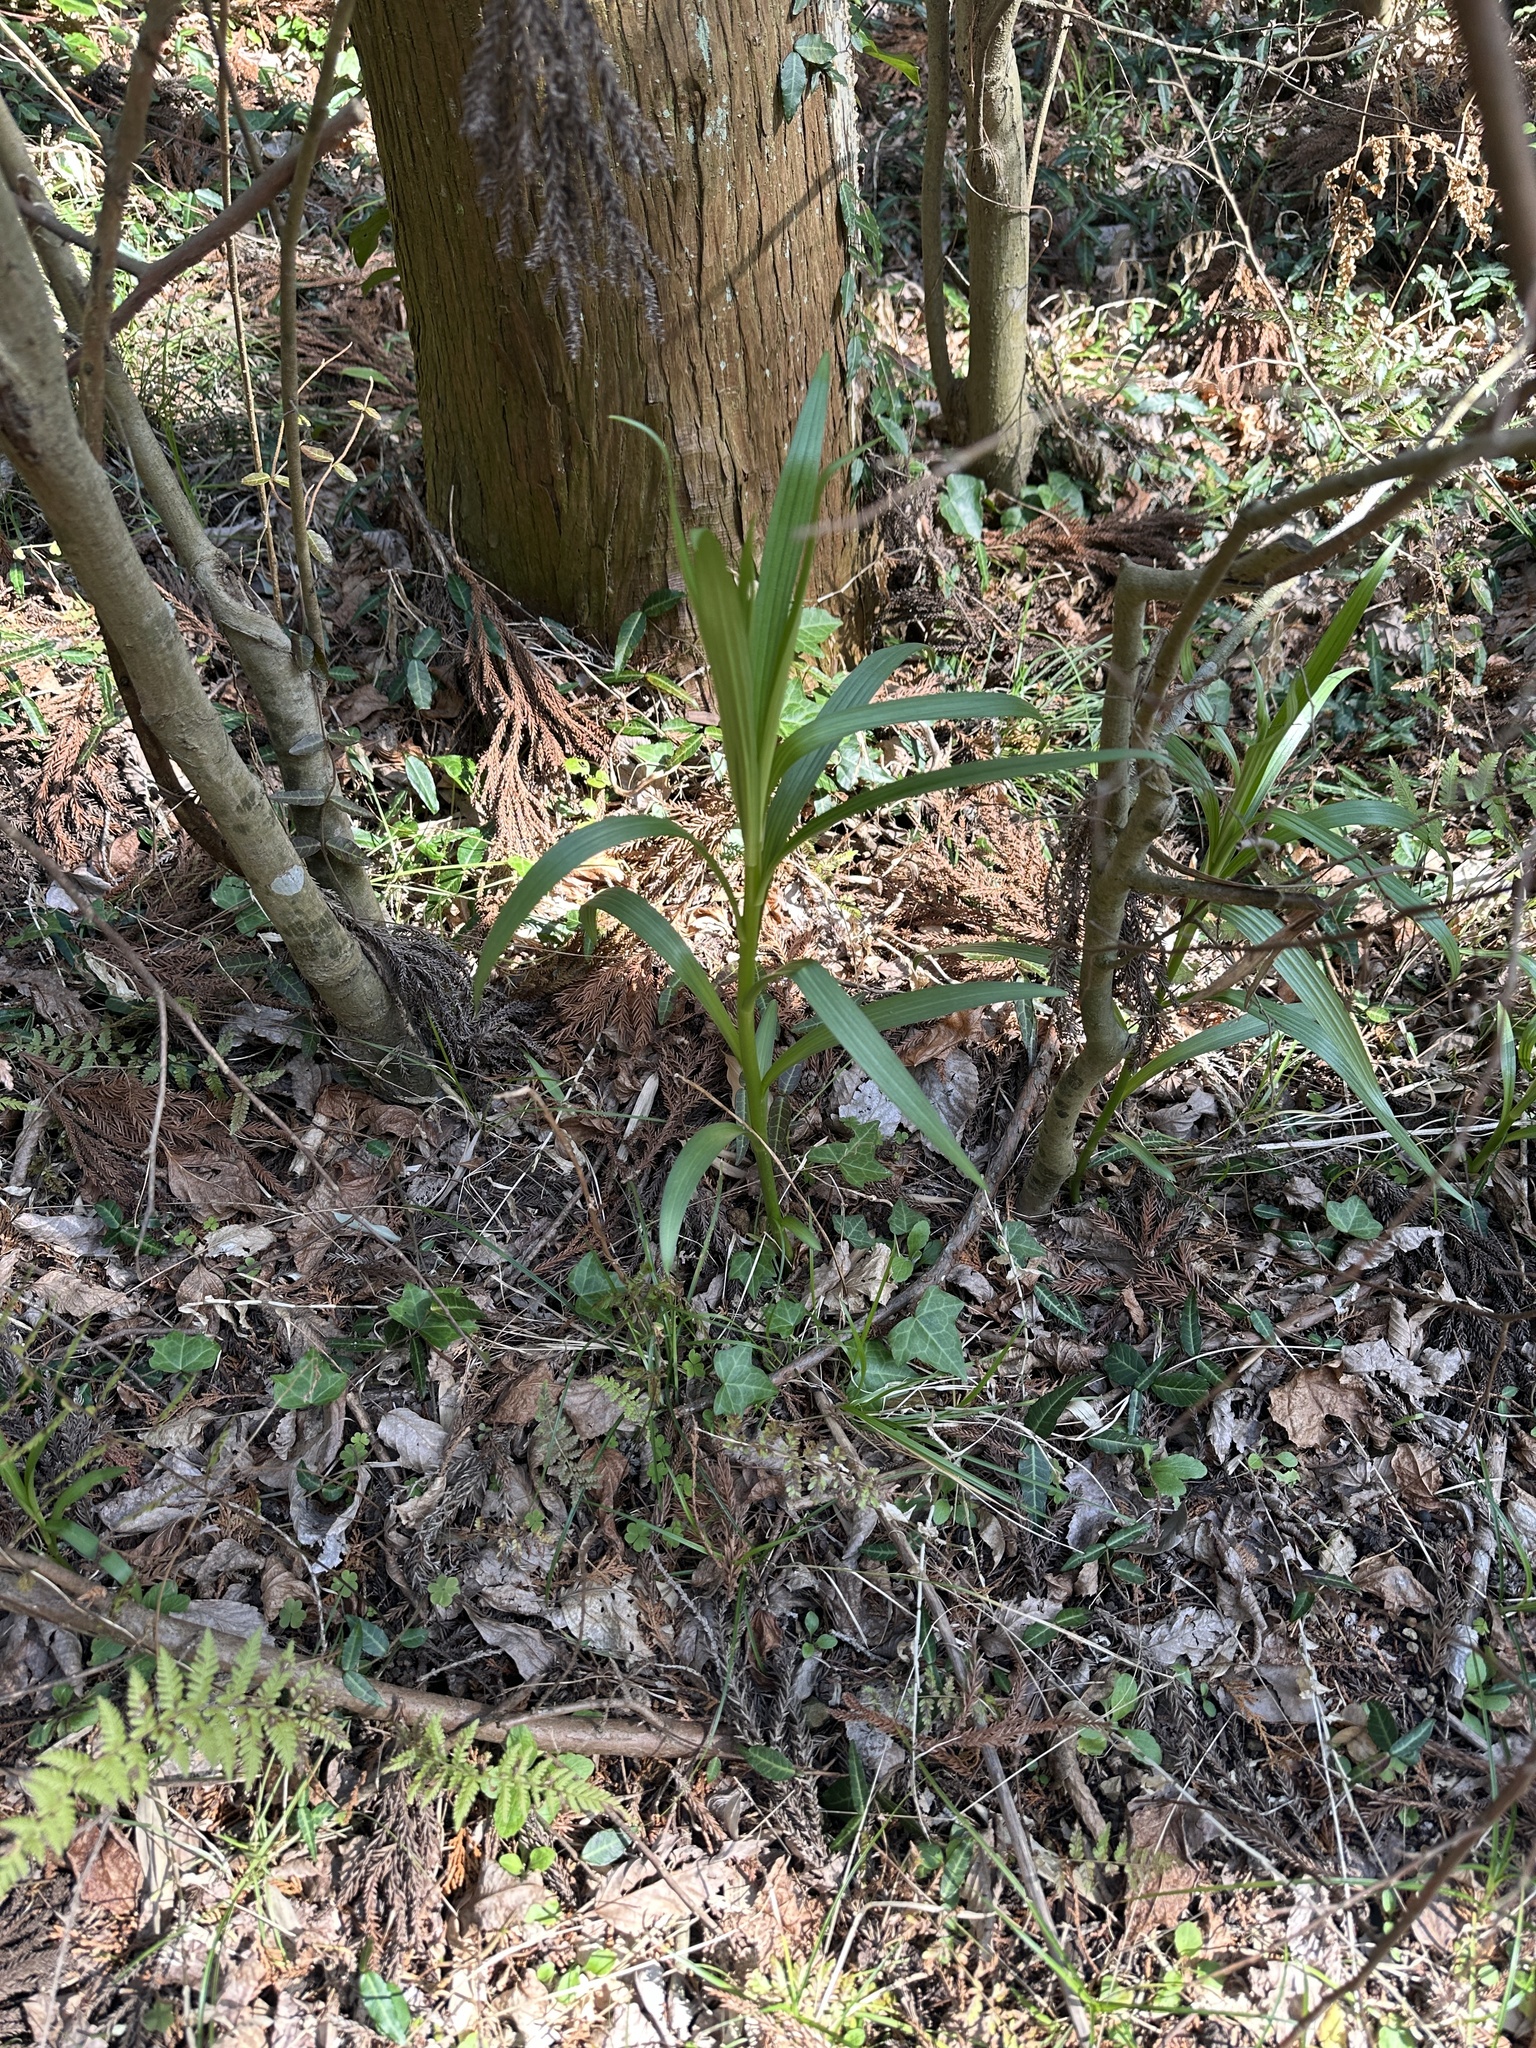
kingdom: Plantae
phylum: Tracheophyta
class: Magnoliopsida
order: Rosales
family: Rosaceae
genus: Rhaphiolepis
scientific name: Rhaphiolepis bibas
